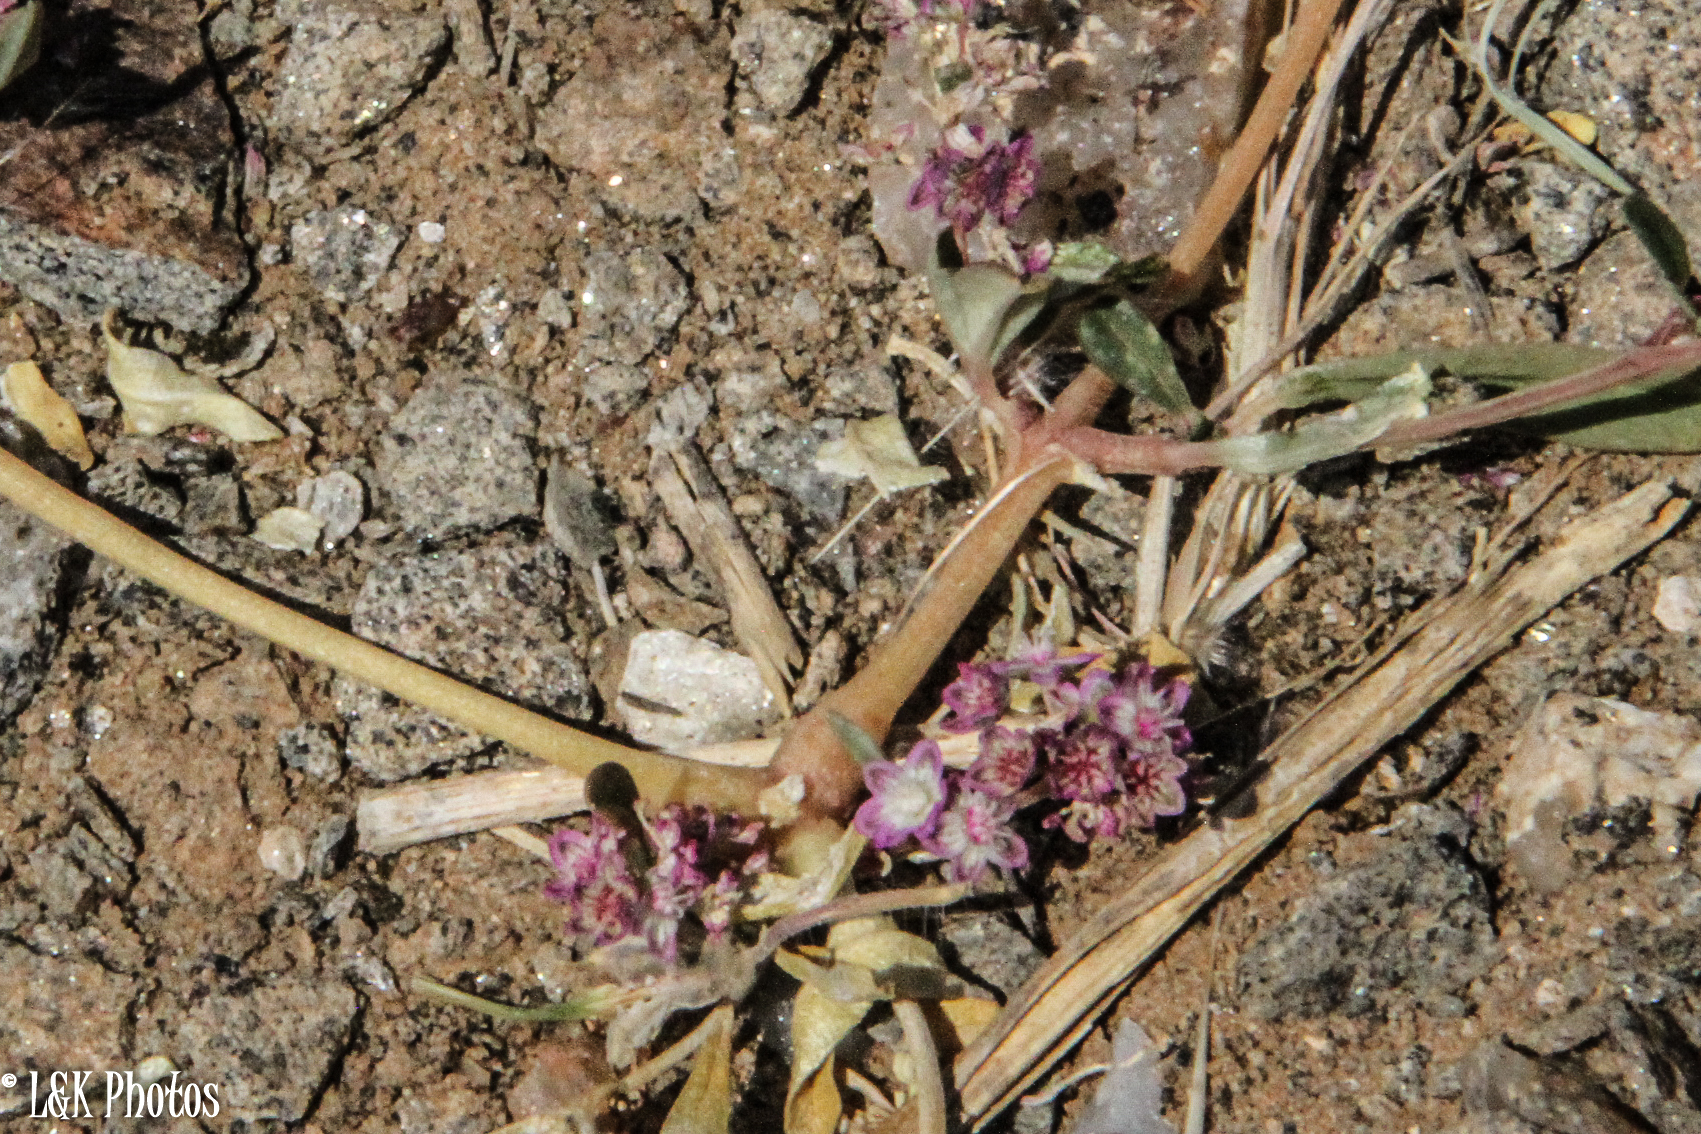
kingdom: Plantae
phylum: Tracheophyta
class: Magnoliopsida
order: Caryophyllales
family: Gisekiaceae
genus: Gisekia
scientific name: Gisekia africana
